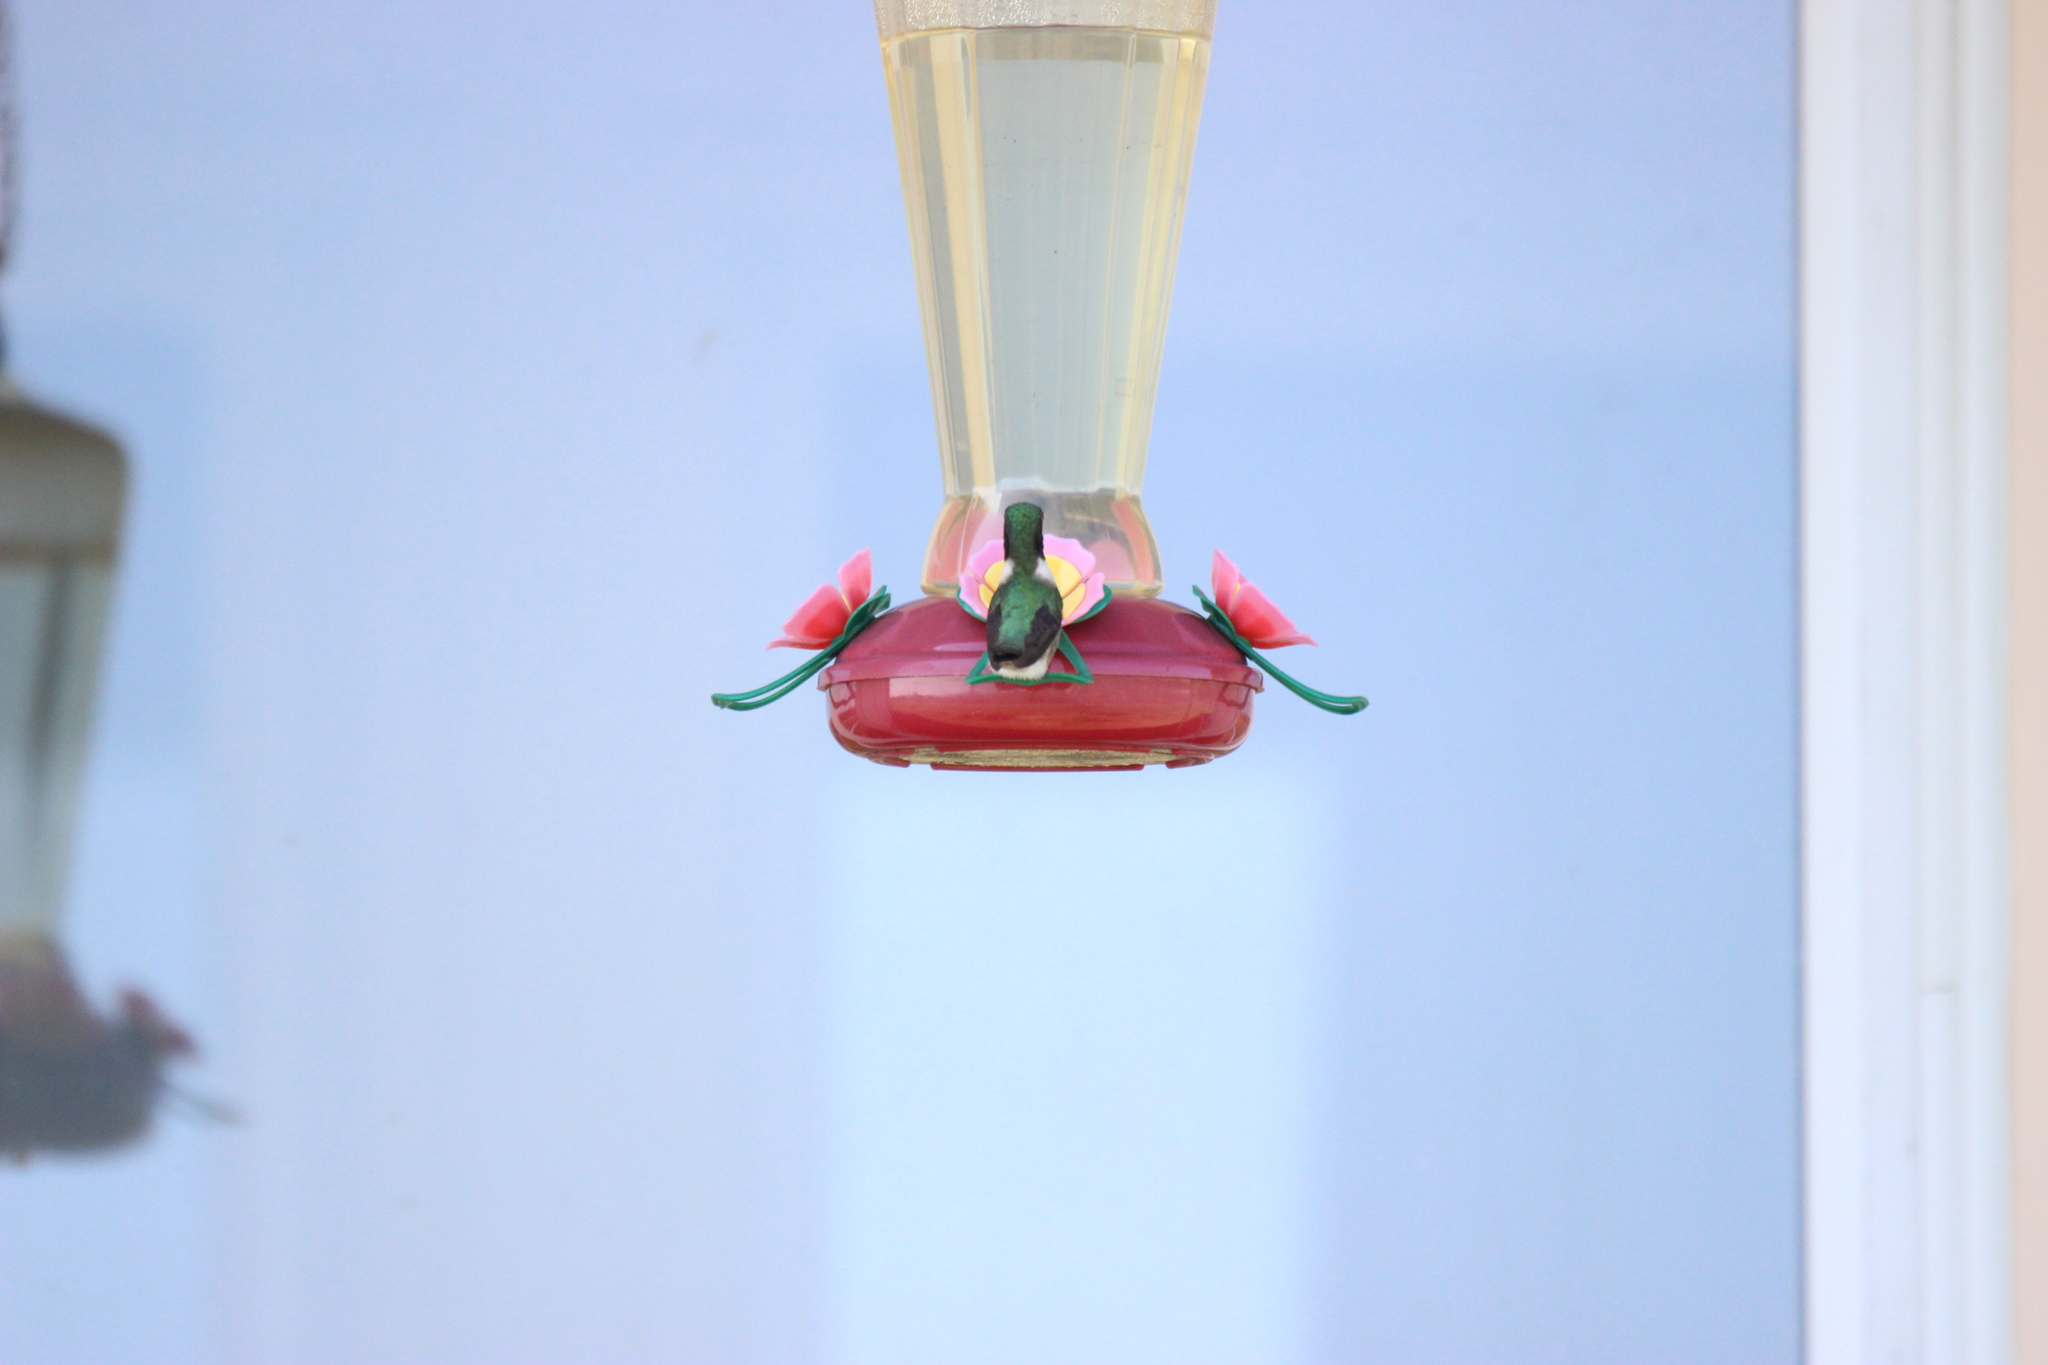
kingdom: Animalia
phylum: Chordata
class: Aves
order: Apodiformes
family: Trochilidae
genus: Archilochus
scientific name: Archilochus colubris
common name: Ruby-throated hummingbird
